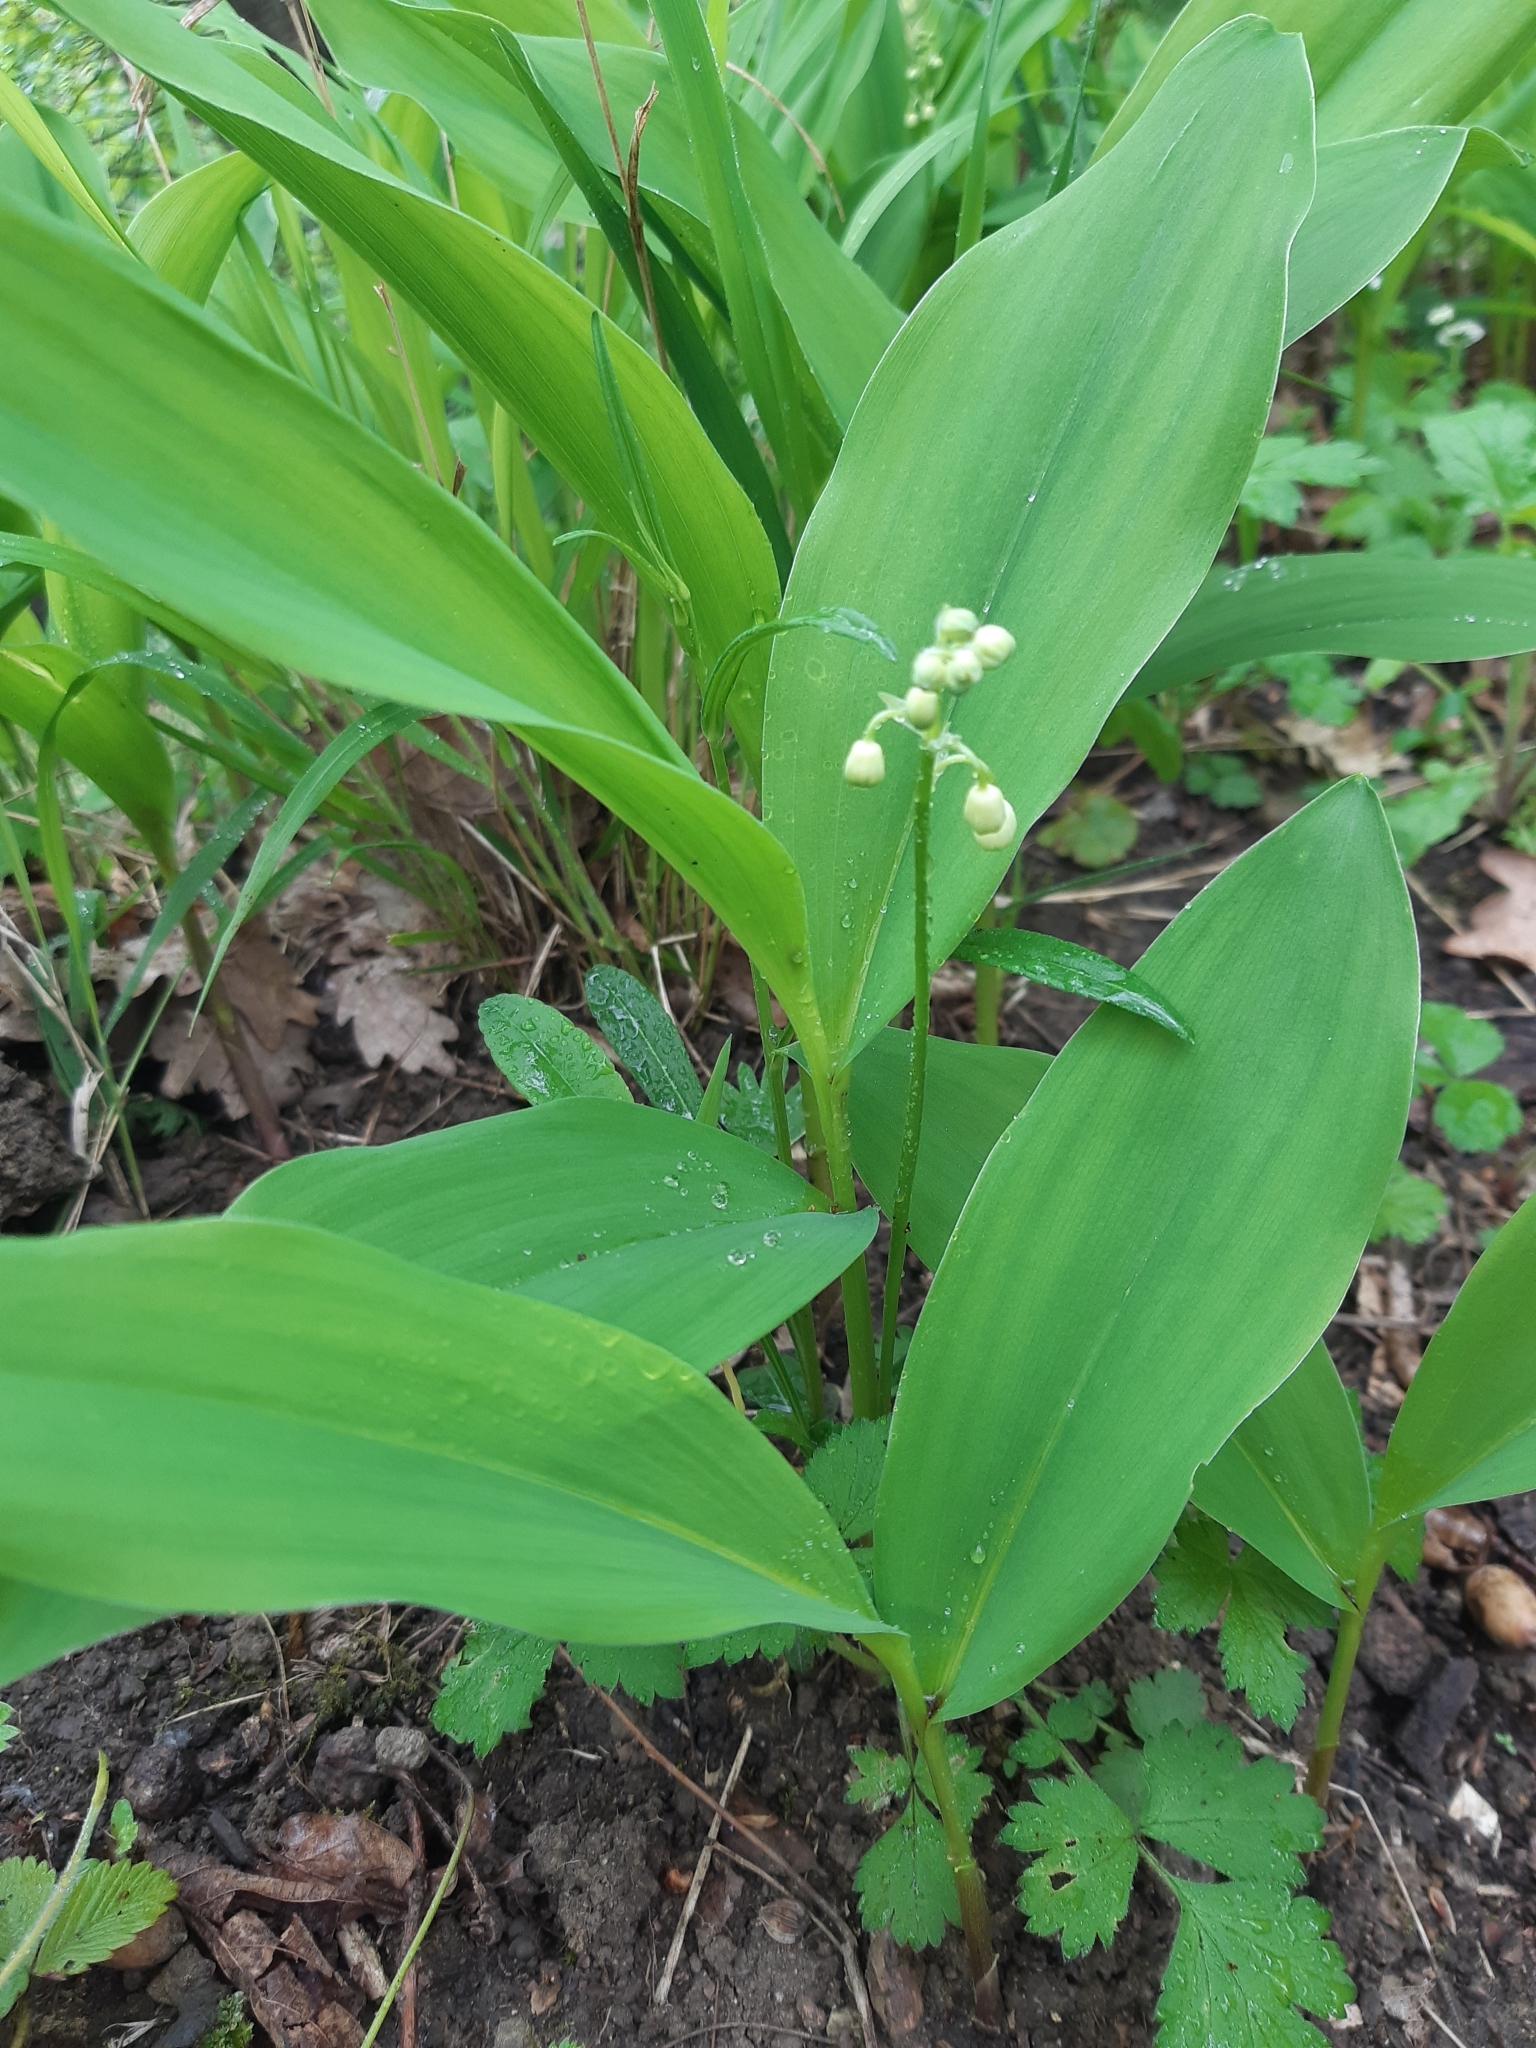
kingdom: Plantae
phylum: Tracheophyta
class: Liliopsida
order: Asparagales
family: Asparagaceae
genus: Convallaria
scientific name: Convallaria majalis
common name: Lily-of-the-valley
